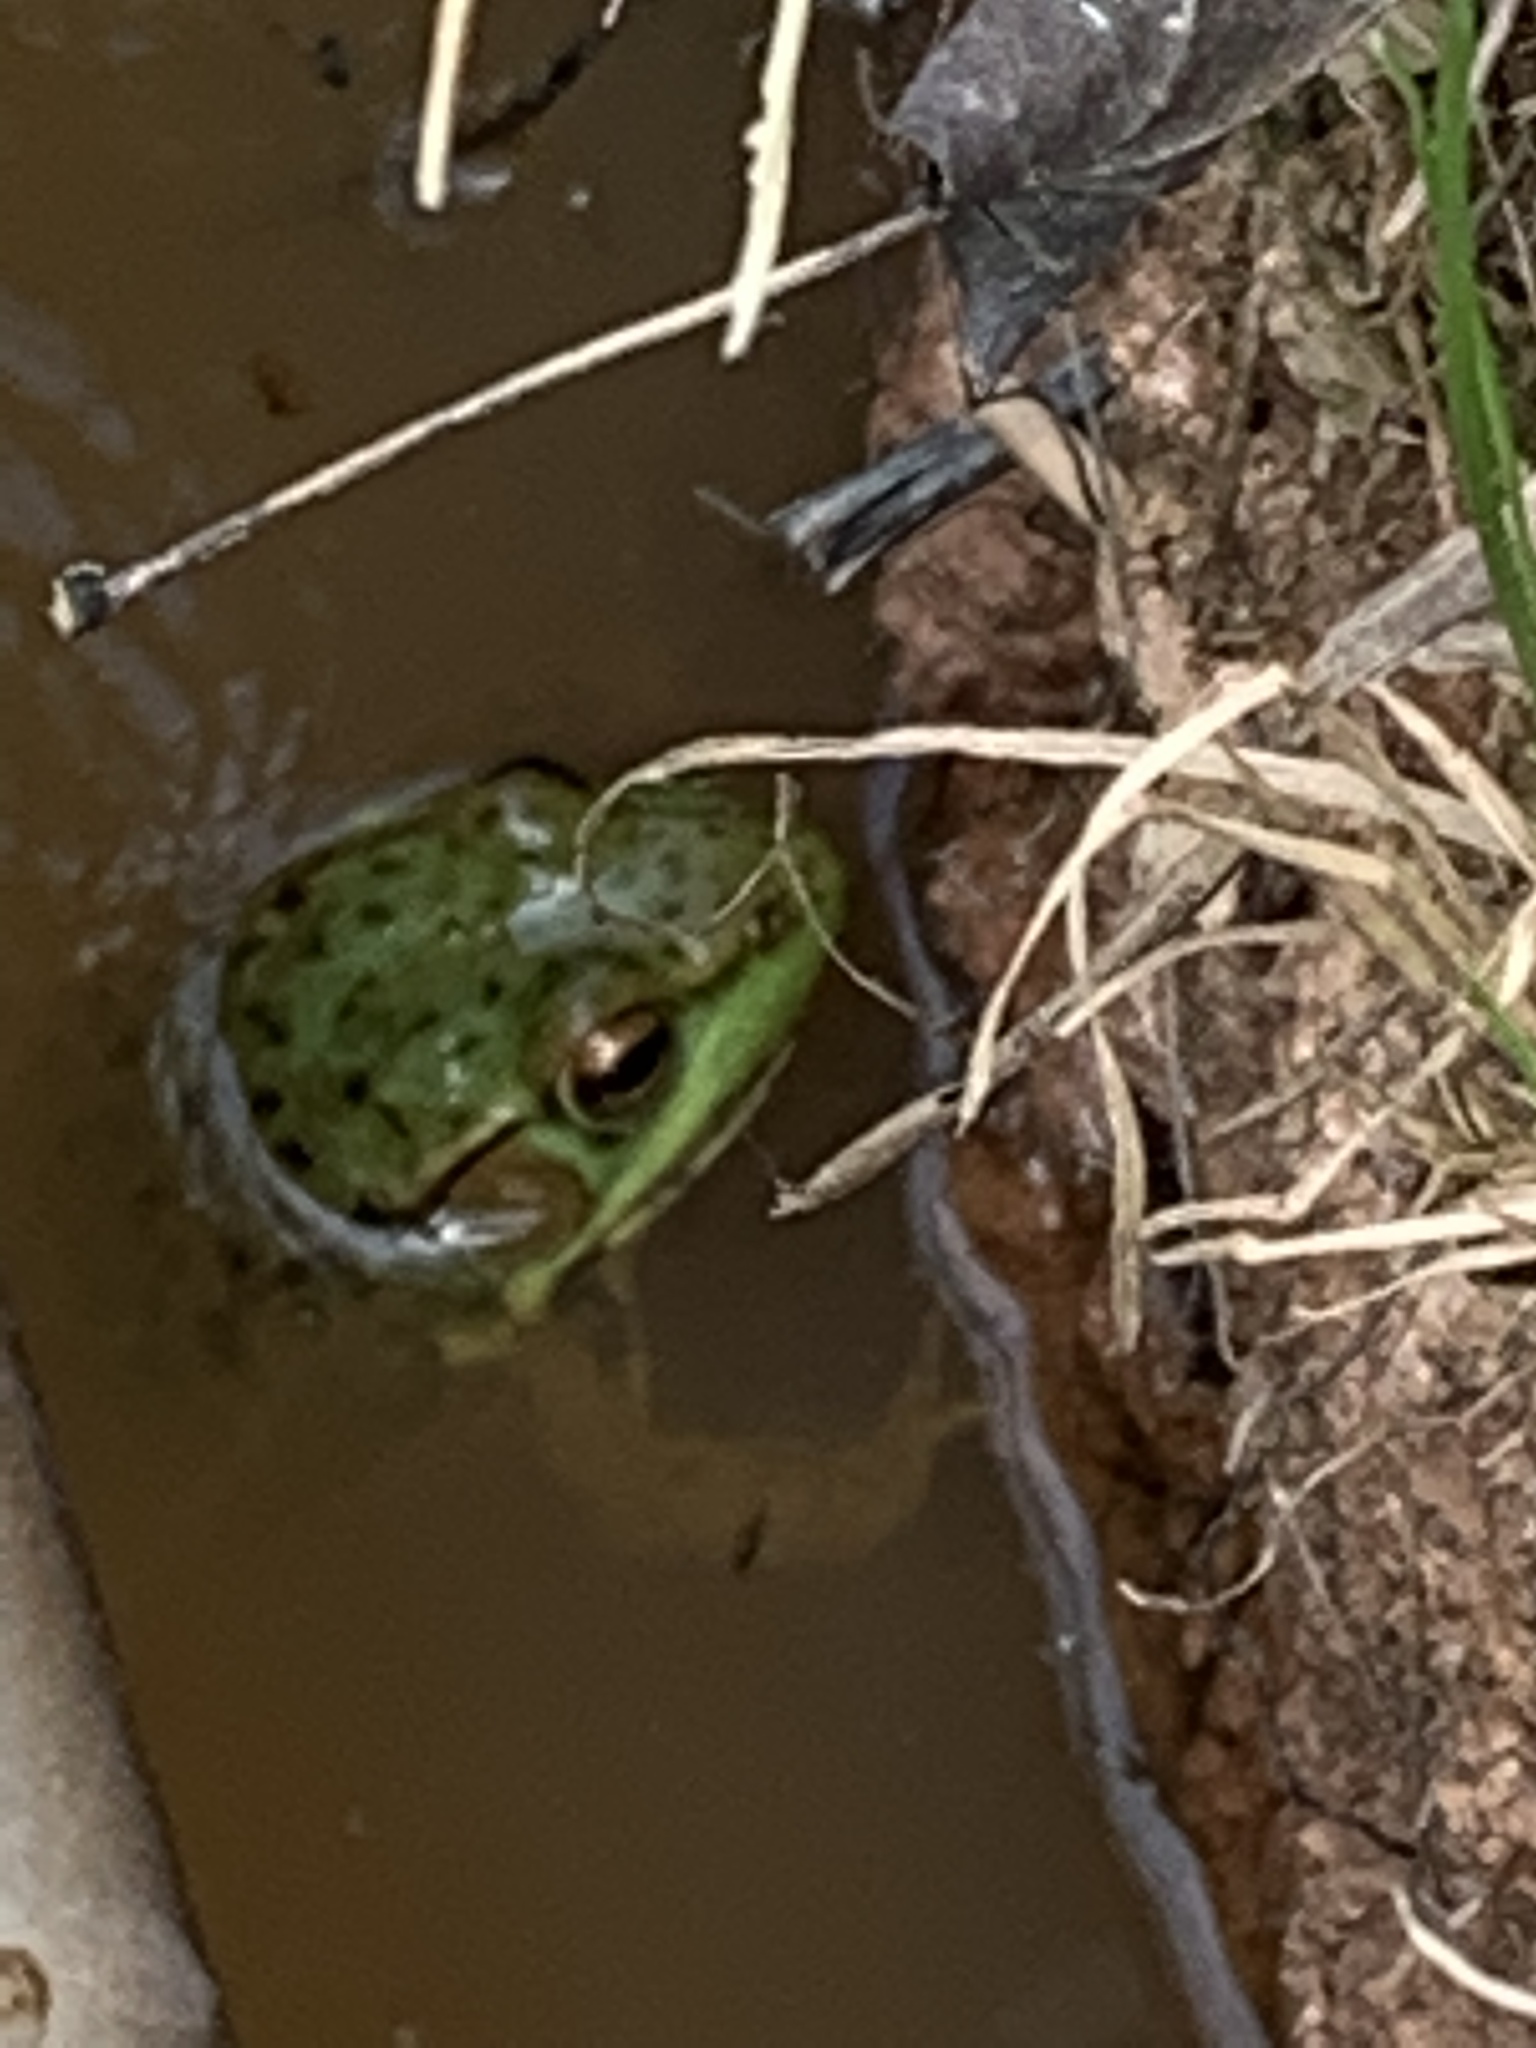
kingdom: Animalia
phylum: Chordata
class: Amphibia
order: Anura
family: Ranidae
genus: Lithobates
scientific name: Lithobates clamitans
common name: Green frog
